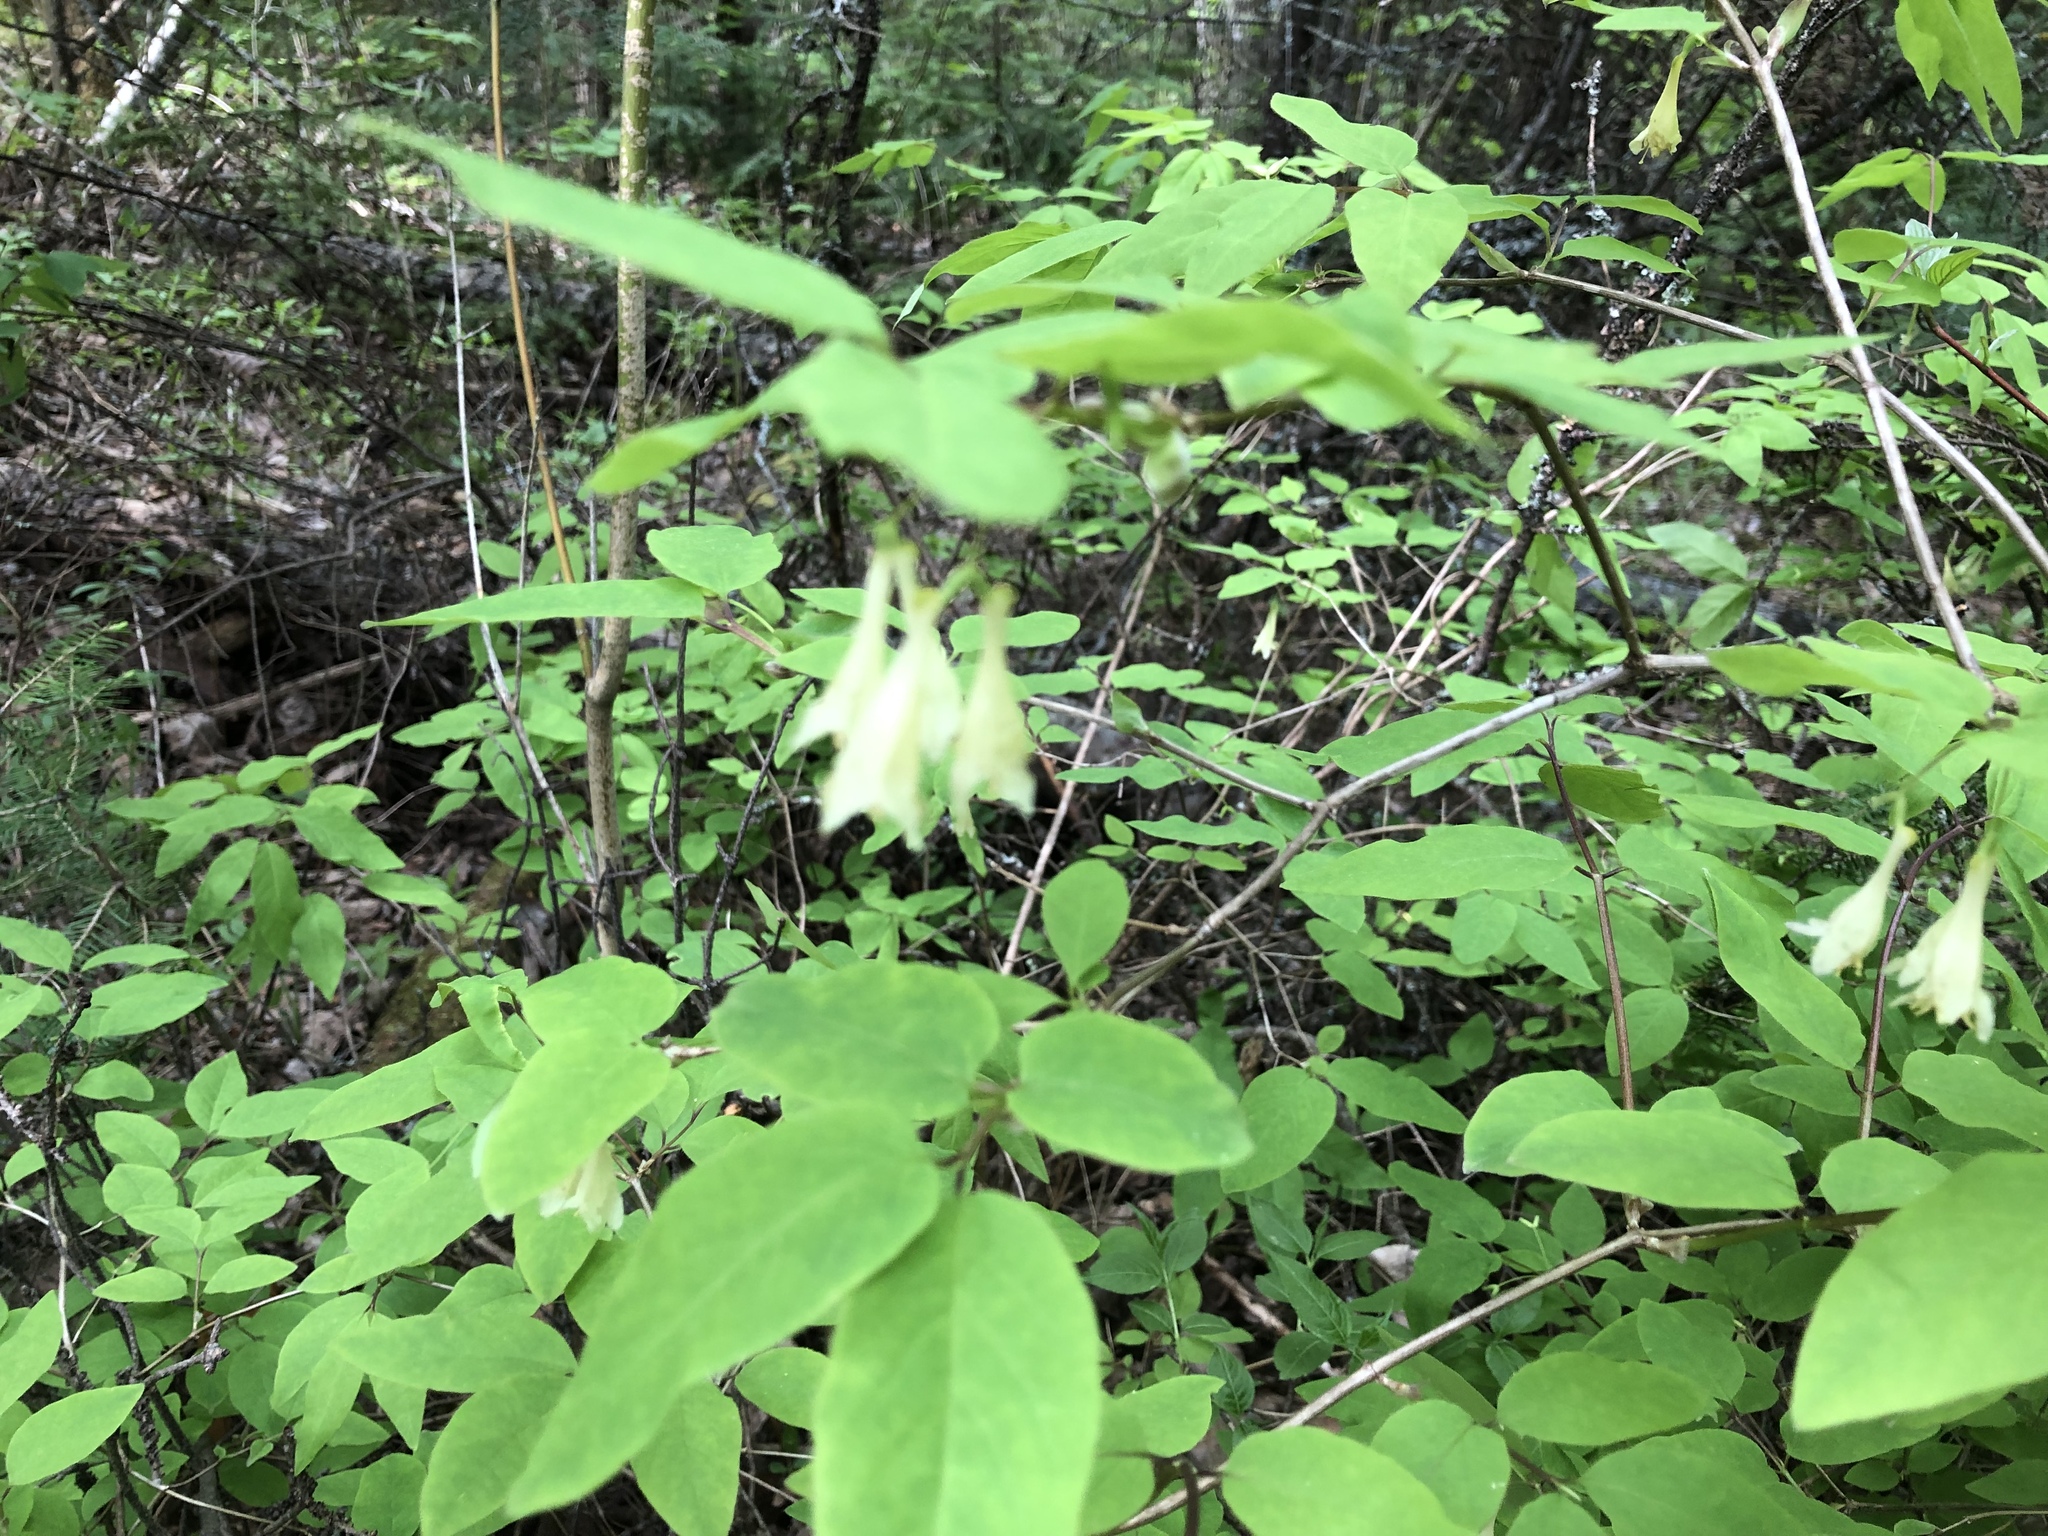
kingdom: Plantae
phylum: Tracheophyta
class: Magnoliopsida
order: Dipsacales
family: Caprifoliaceae
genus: Lonicera
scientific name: Lonicera canadensis
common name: American fly-honeysuckle
